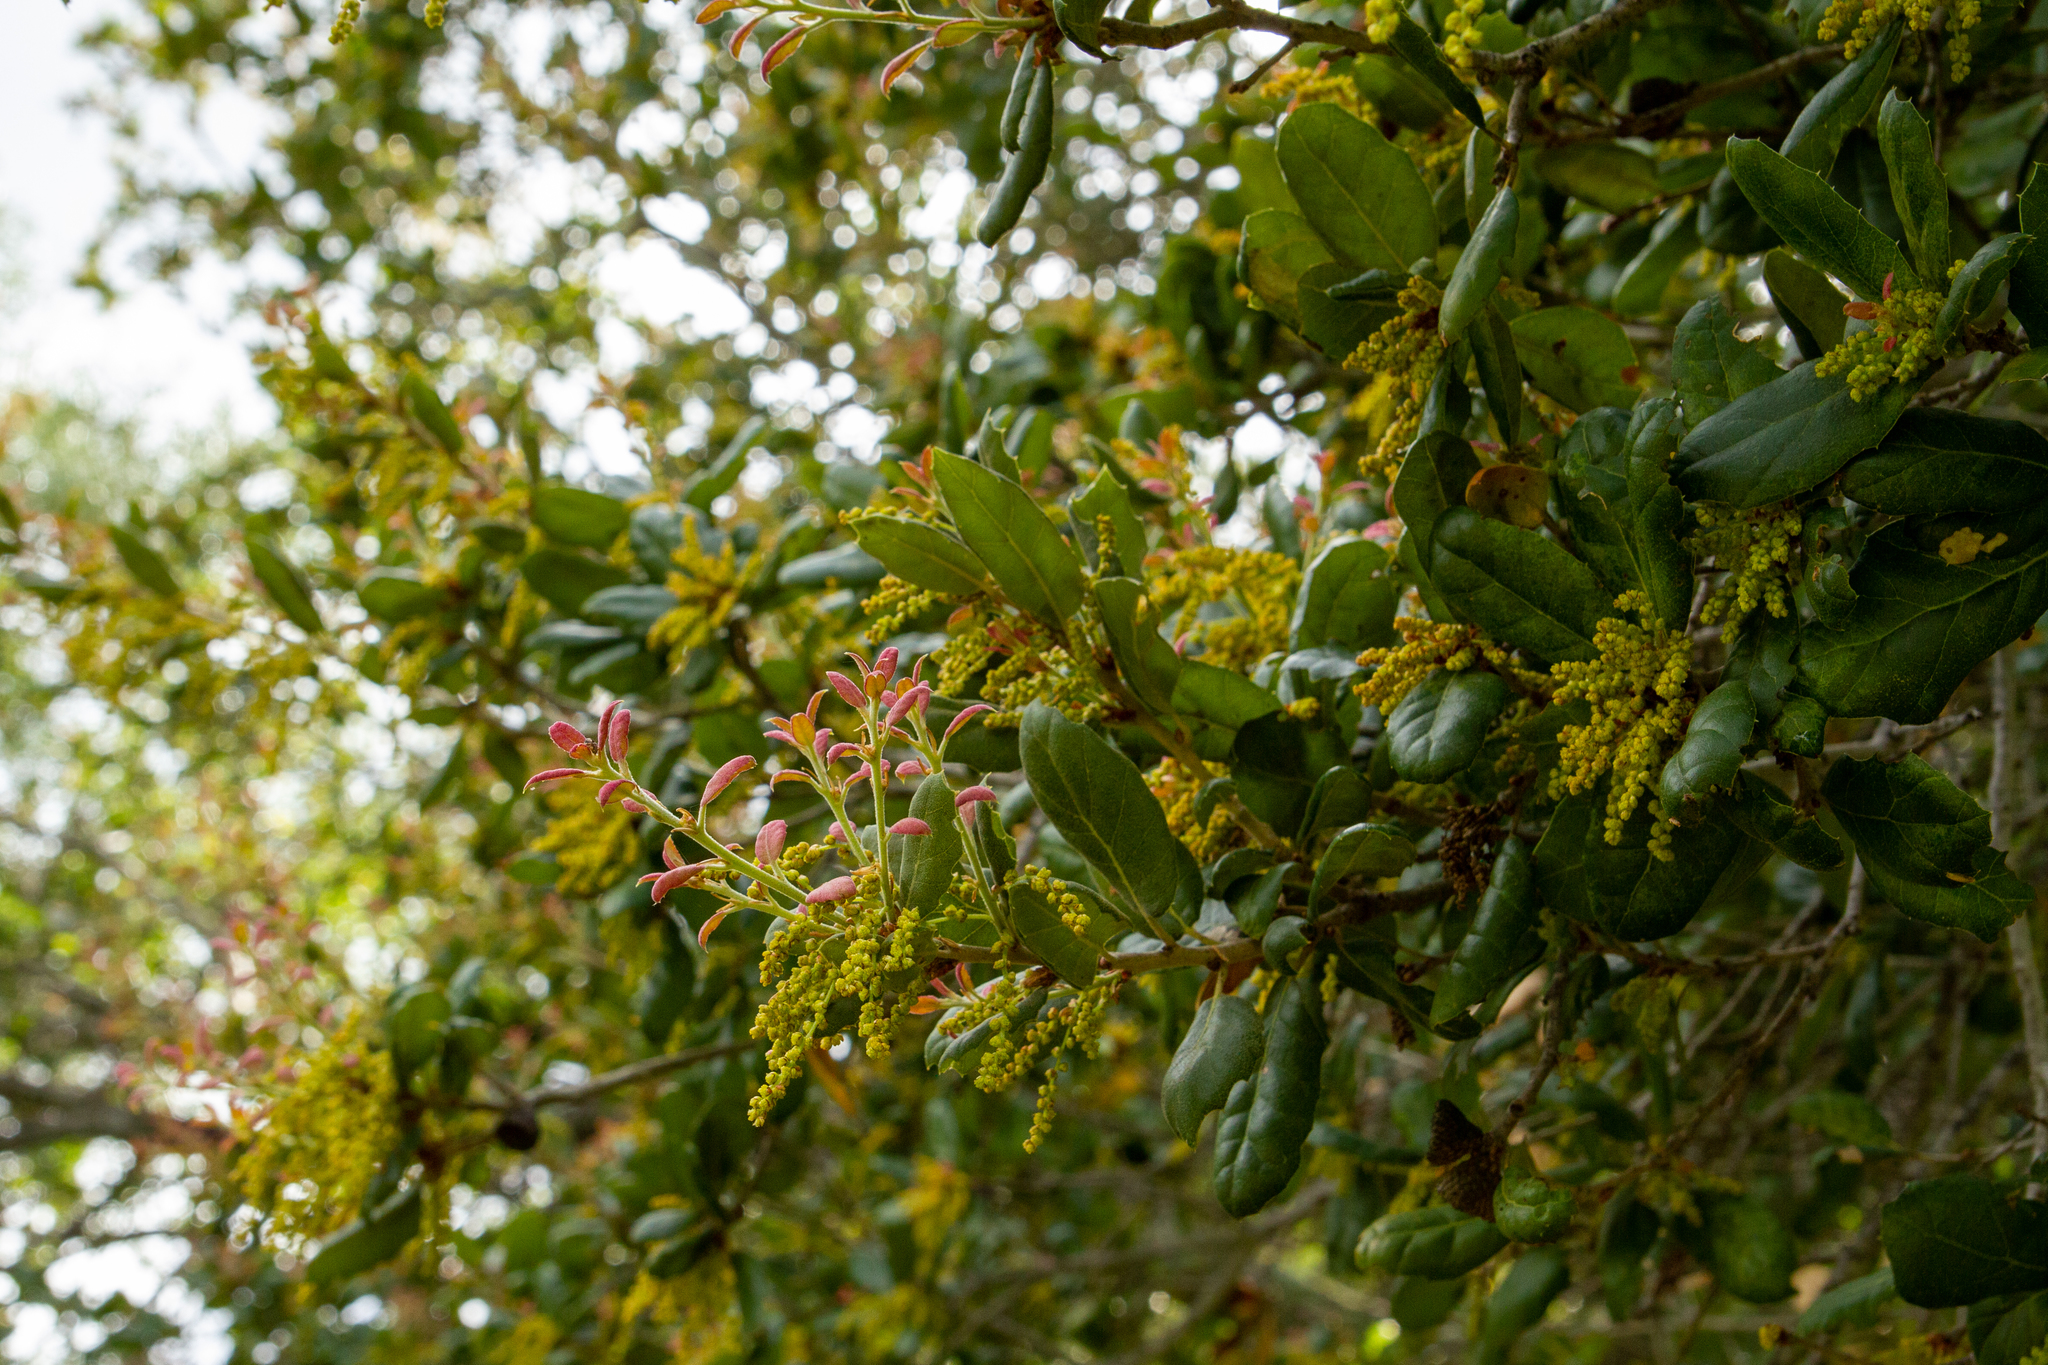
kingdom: Plantae
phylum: Tracheophyta
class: Magnoliopsida
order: Fagales
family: Fagaceae
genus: Quercus
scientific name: Quercus agrifolia
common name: California live oak
